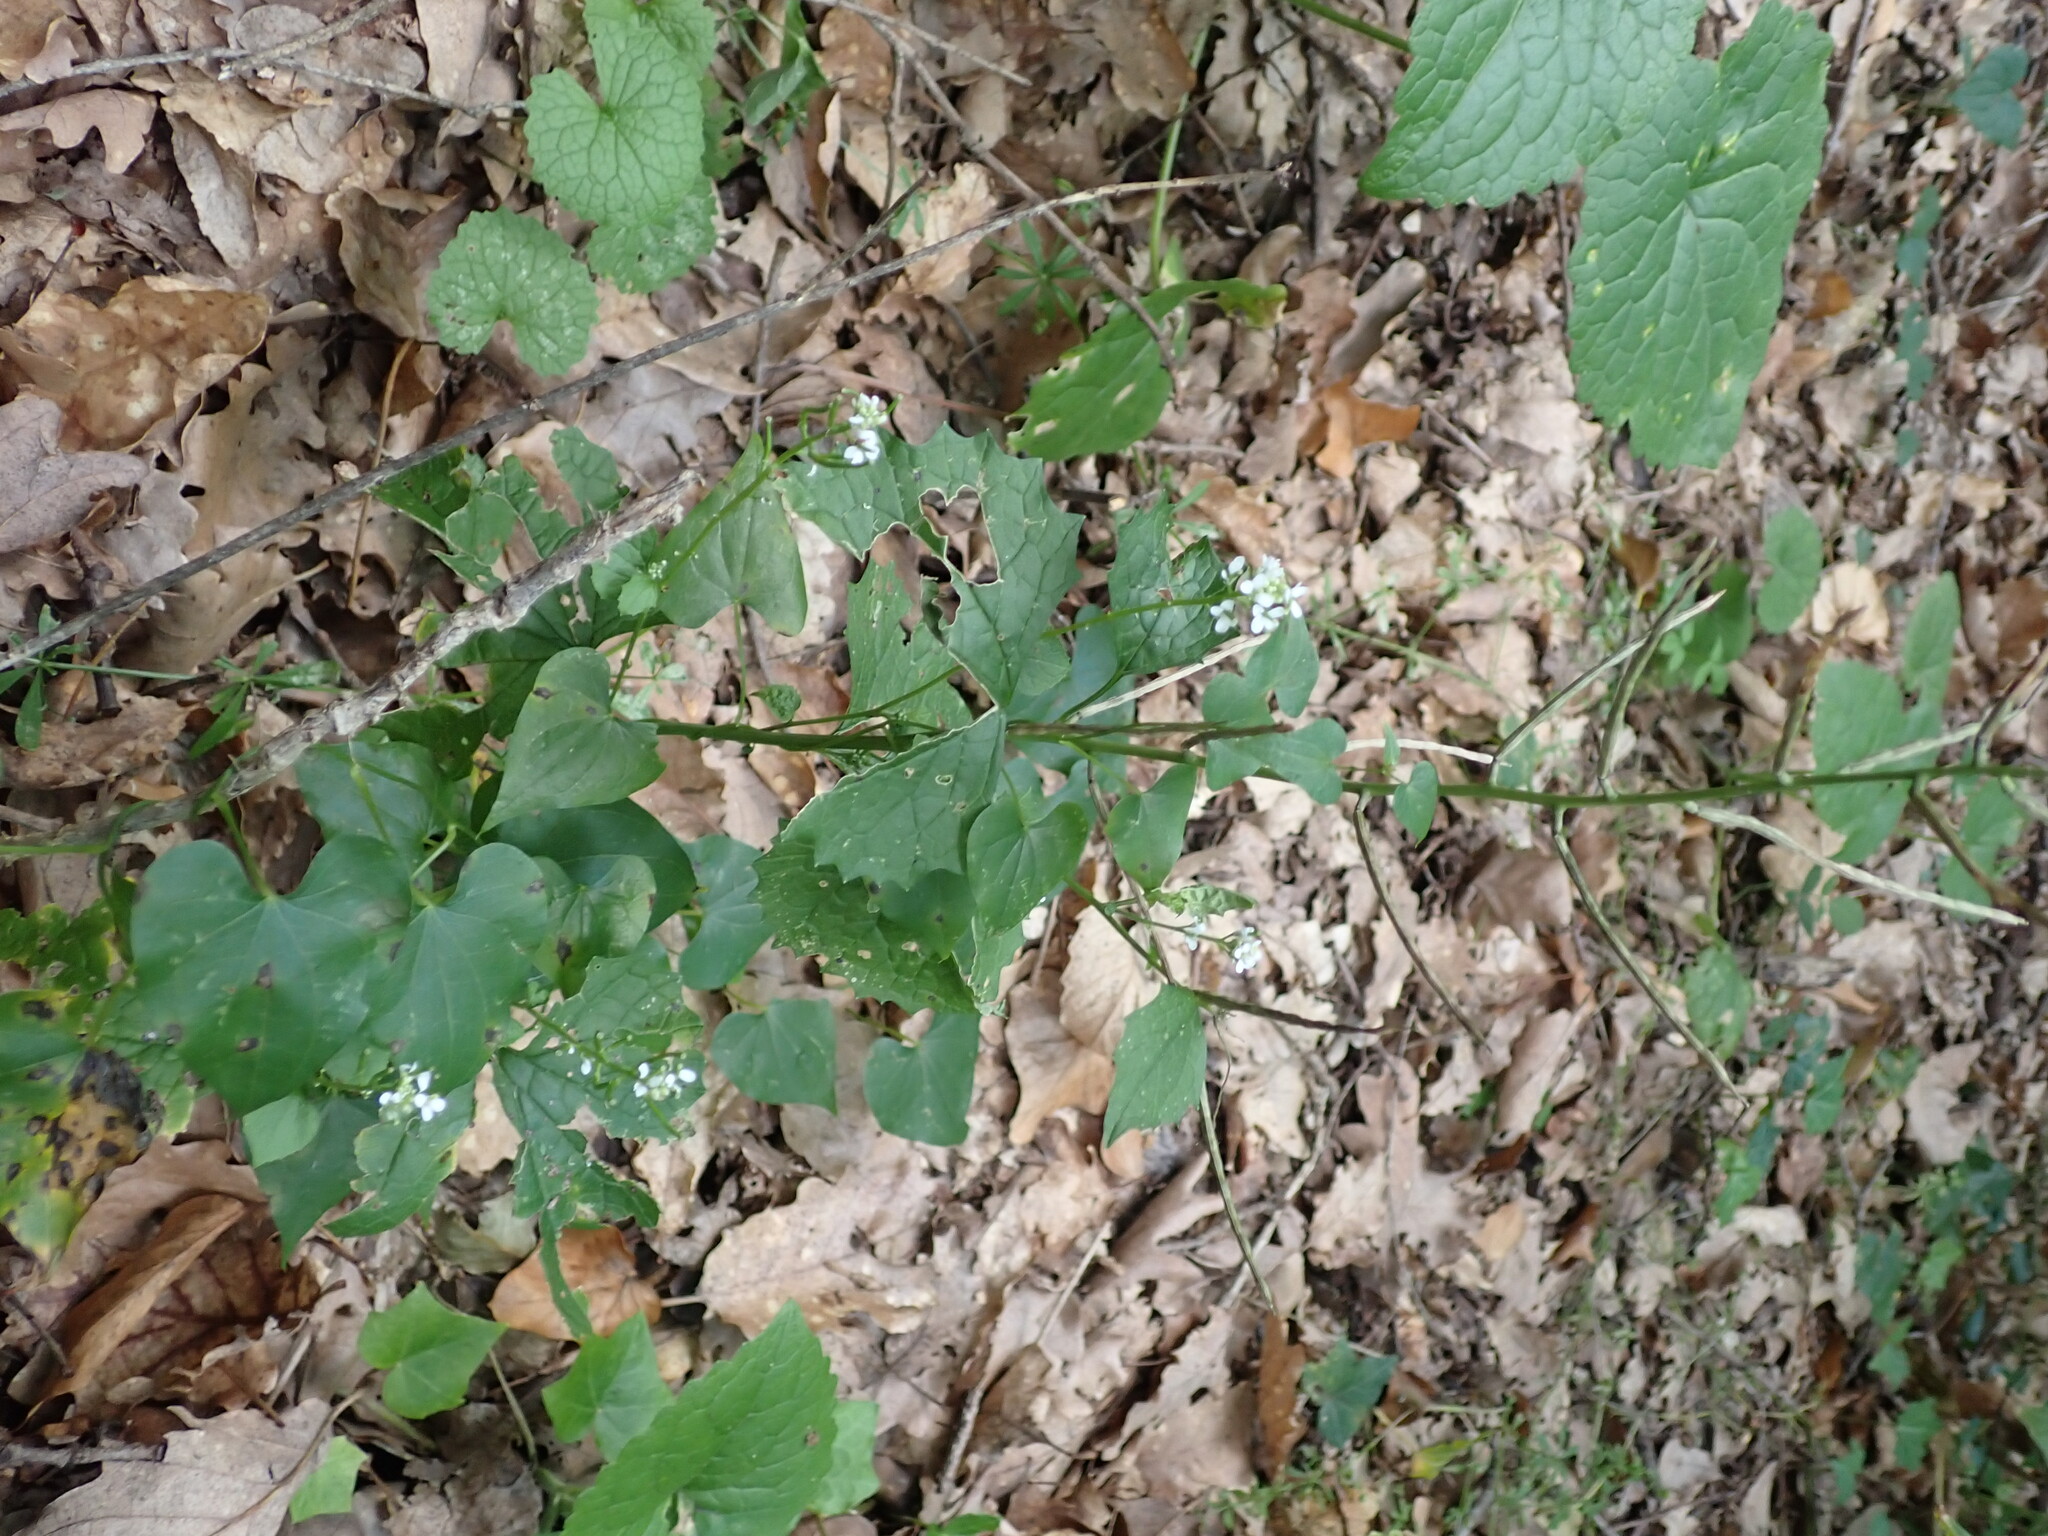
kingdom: Plantae
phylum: Tracheophyta
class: Magnoliopsida
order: Brassicales
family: Brassicaceae
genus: Alliaria
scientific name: Alliaria petiolata
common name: Garlic mustard
